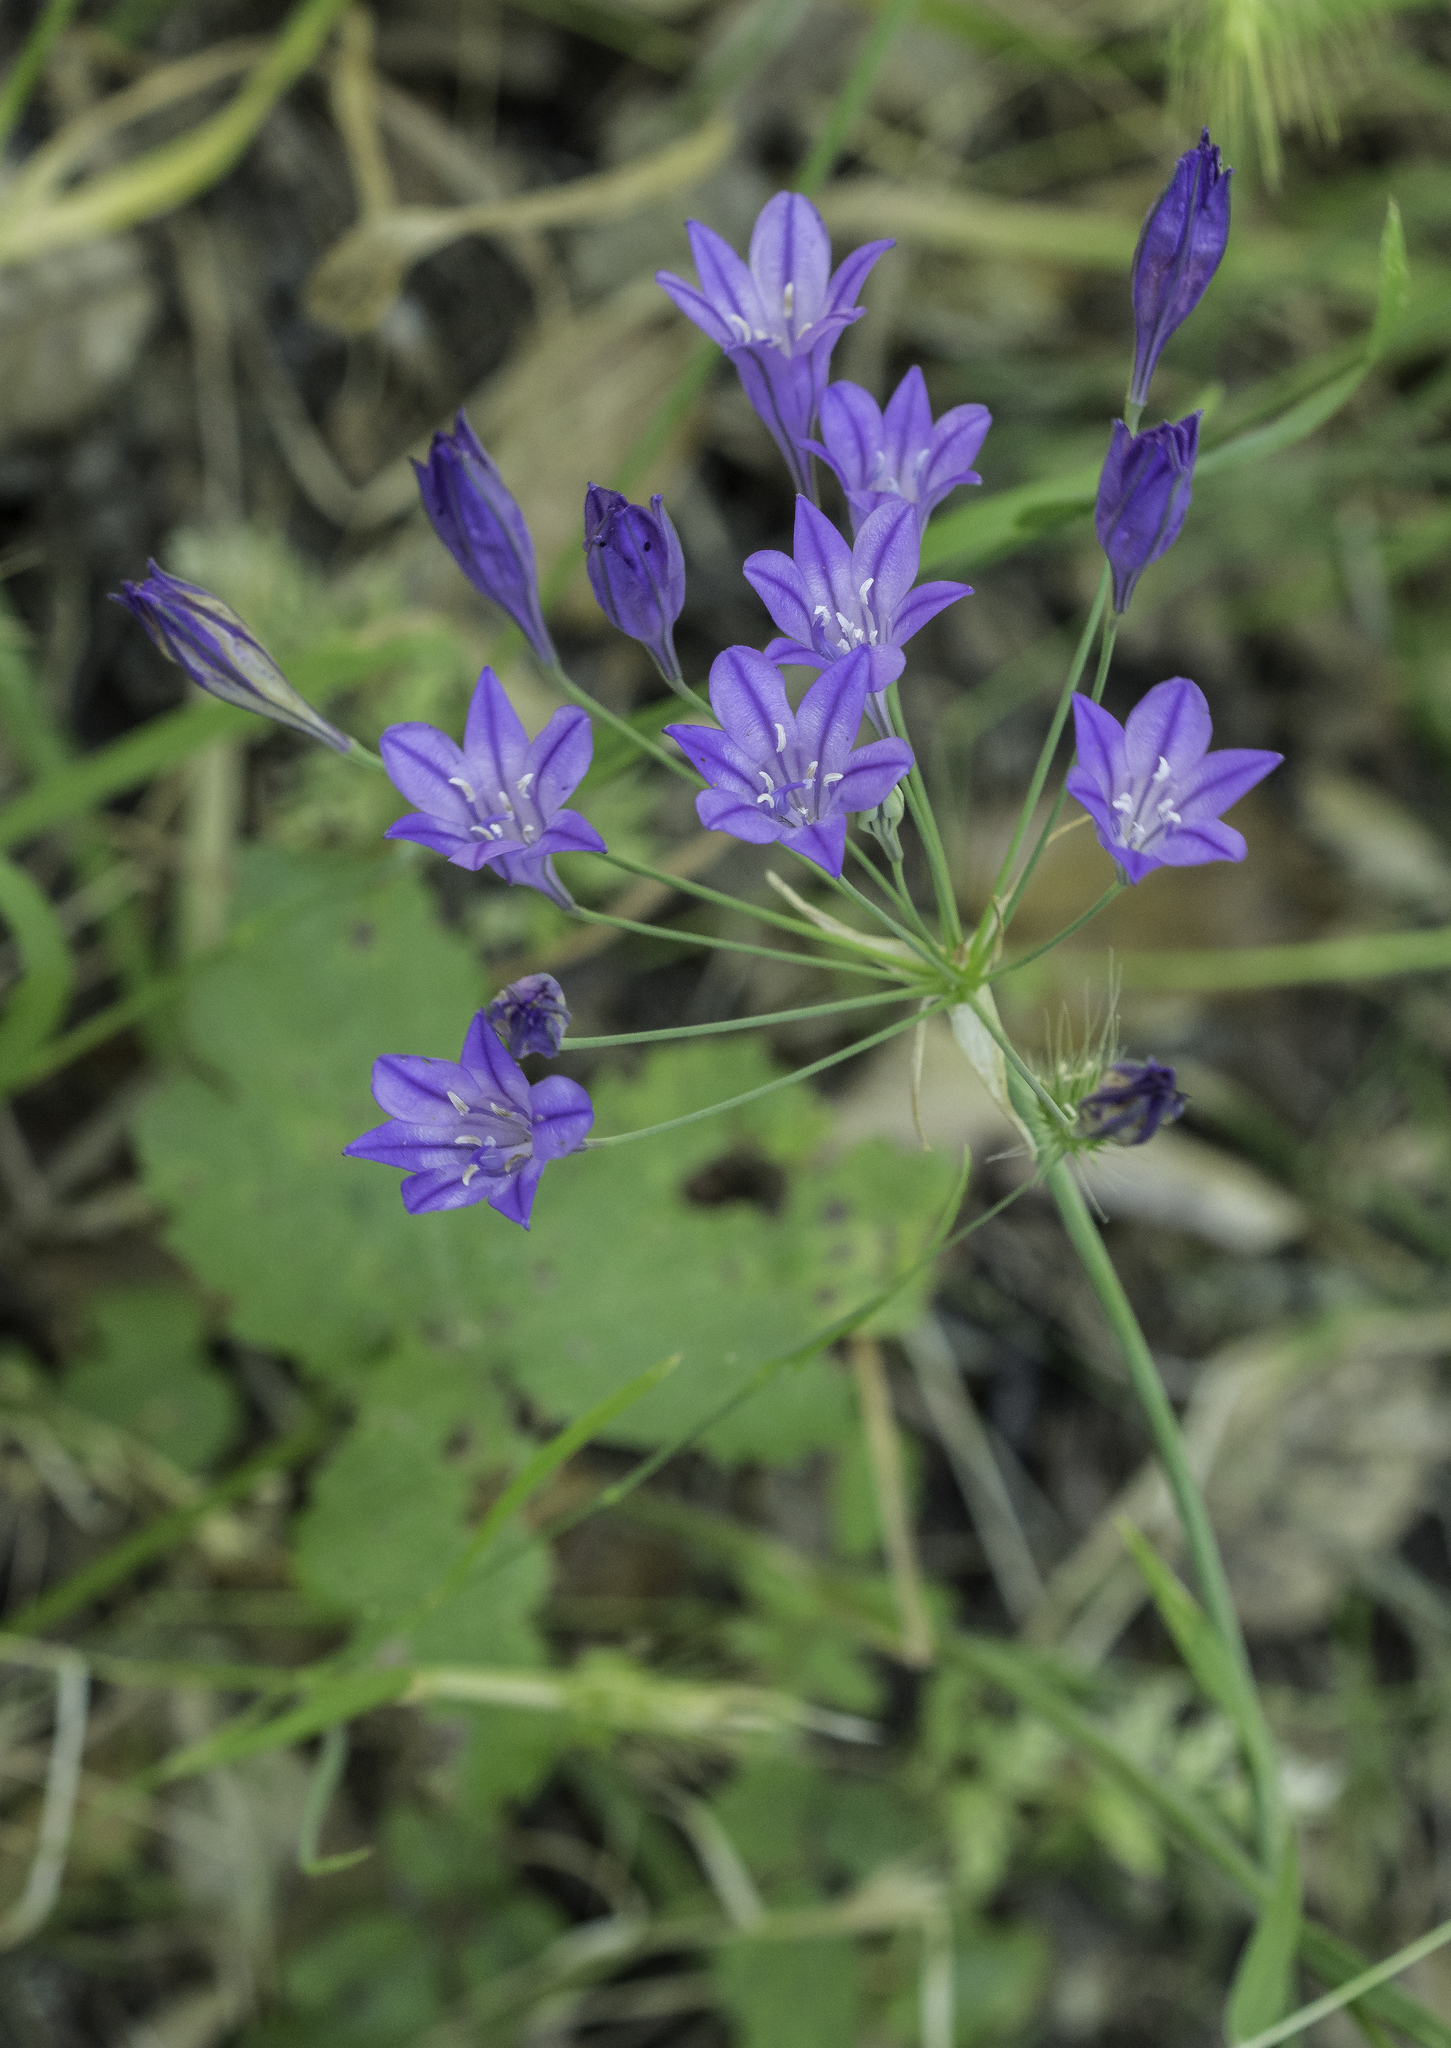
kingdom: Plantae
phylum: Tracheophyta
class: Liliopsida
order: Asparagales
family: Asparagaceae
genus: Triteleia
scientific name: Triteleia laxa
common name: Triplet-lily
